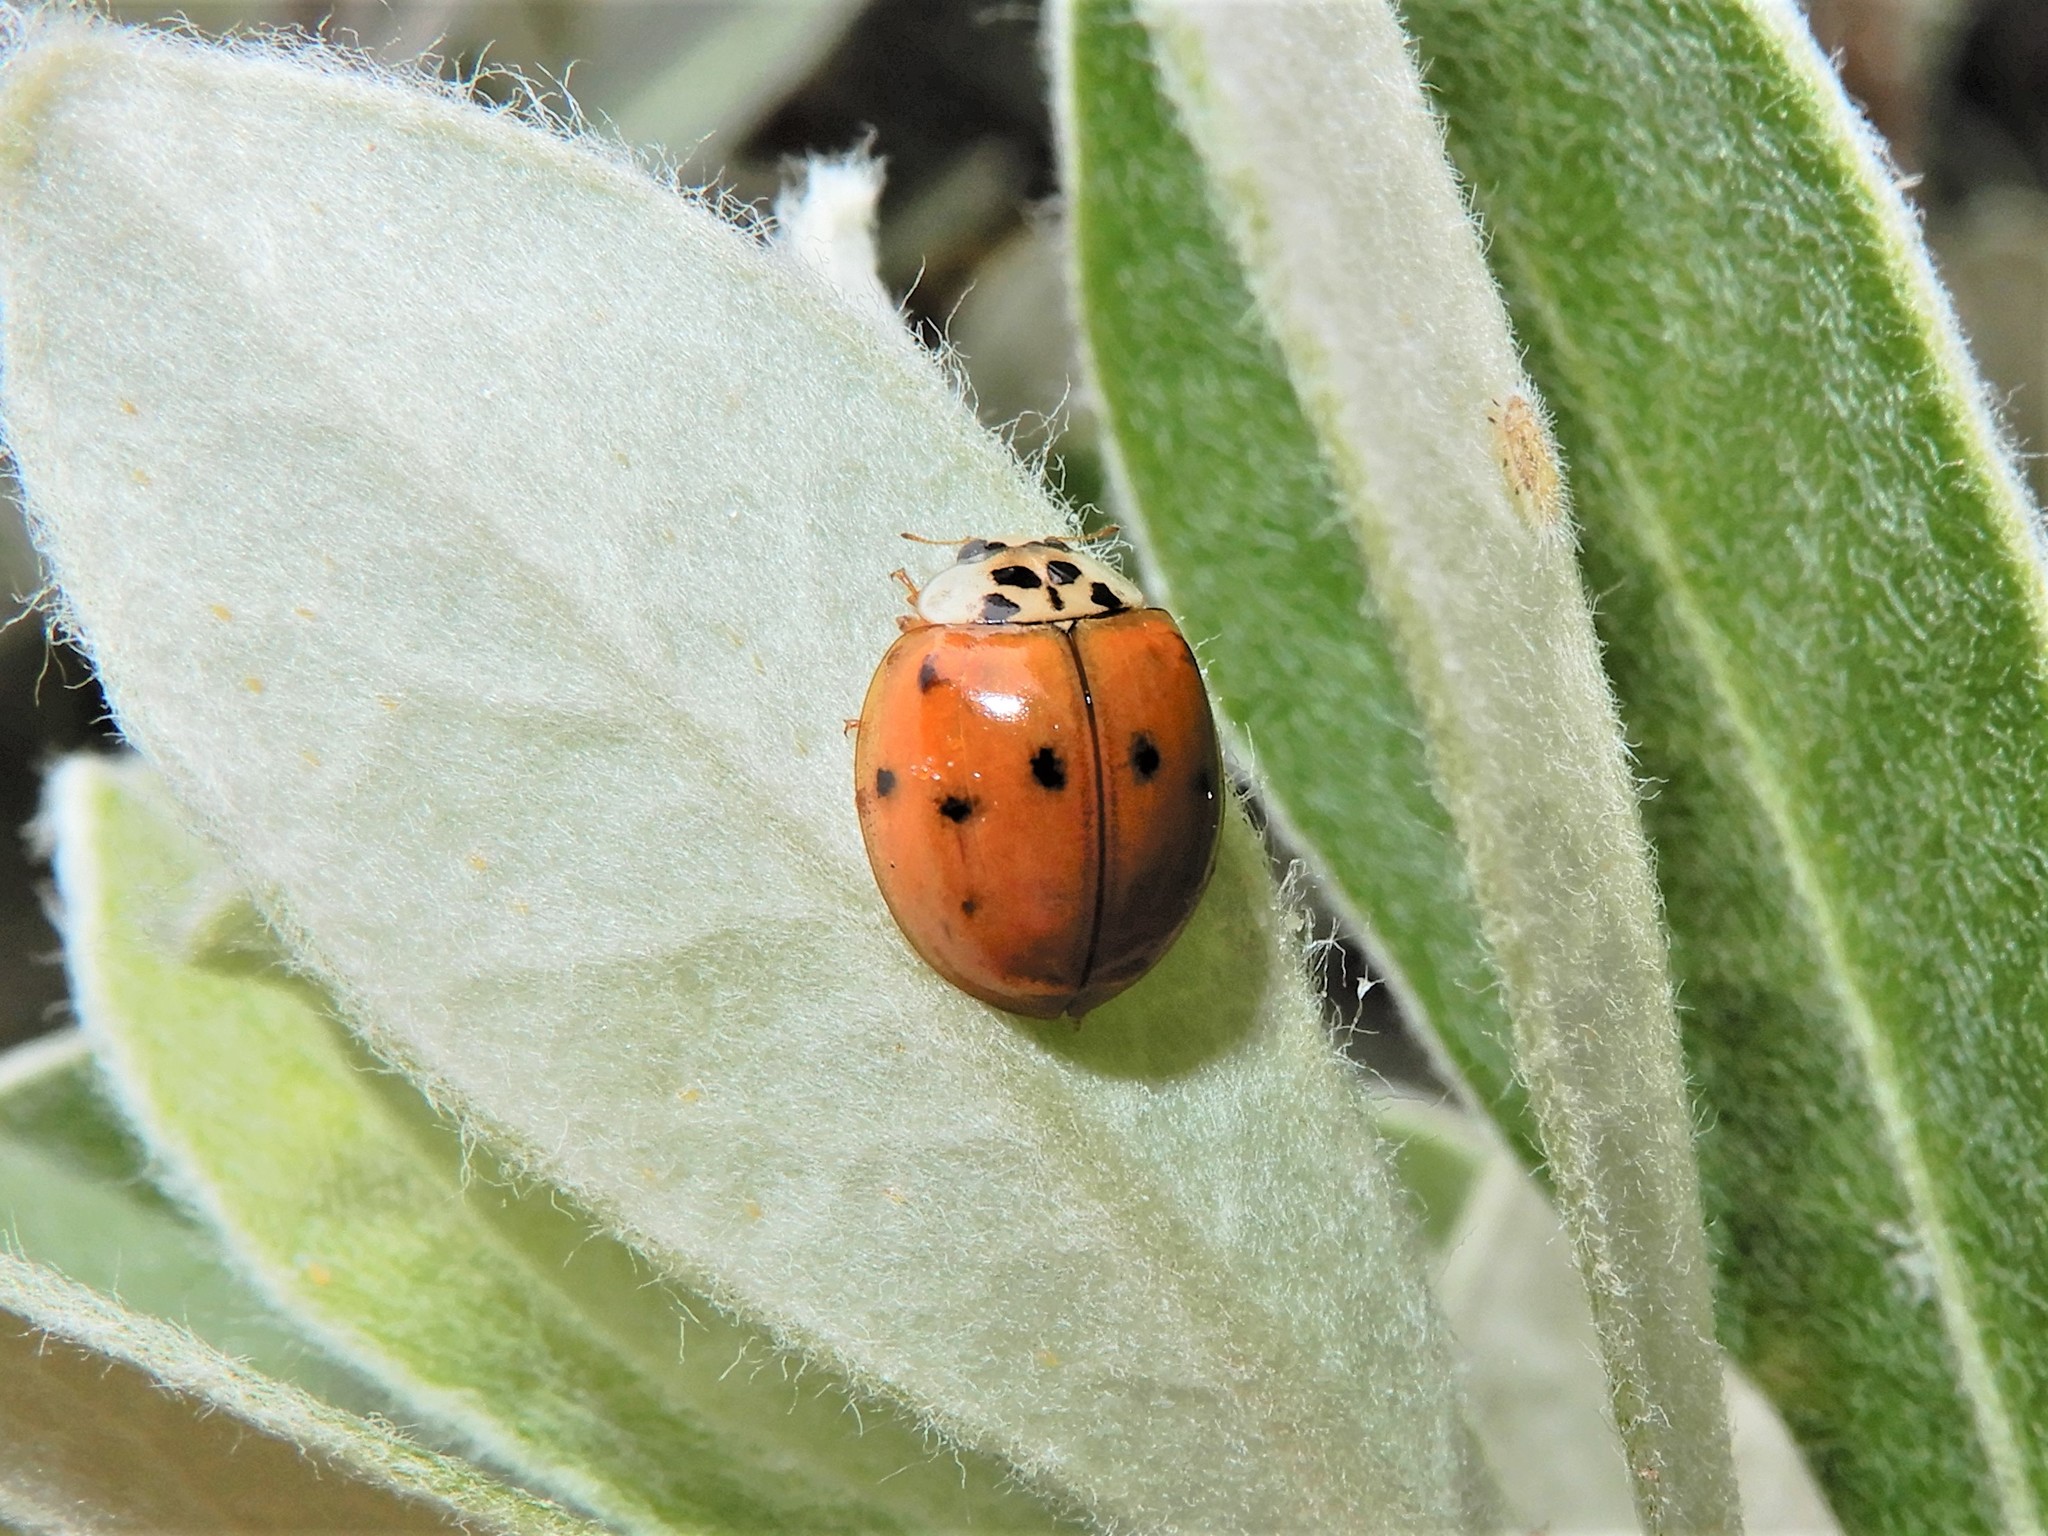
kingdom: Animalia
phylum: Arthropoda
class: Insecta
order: Coleoptera
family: Coccinellidae
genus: Harmonia
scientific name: Harmonia axyridis
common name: Harlequin ladybird
